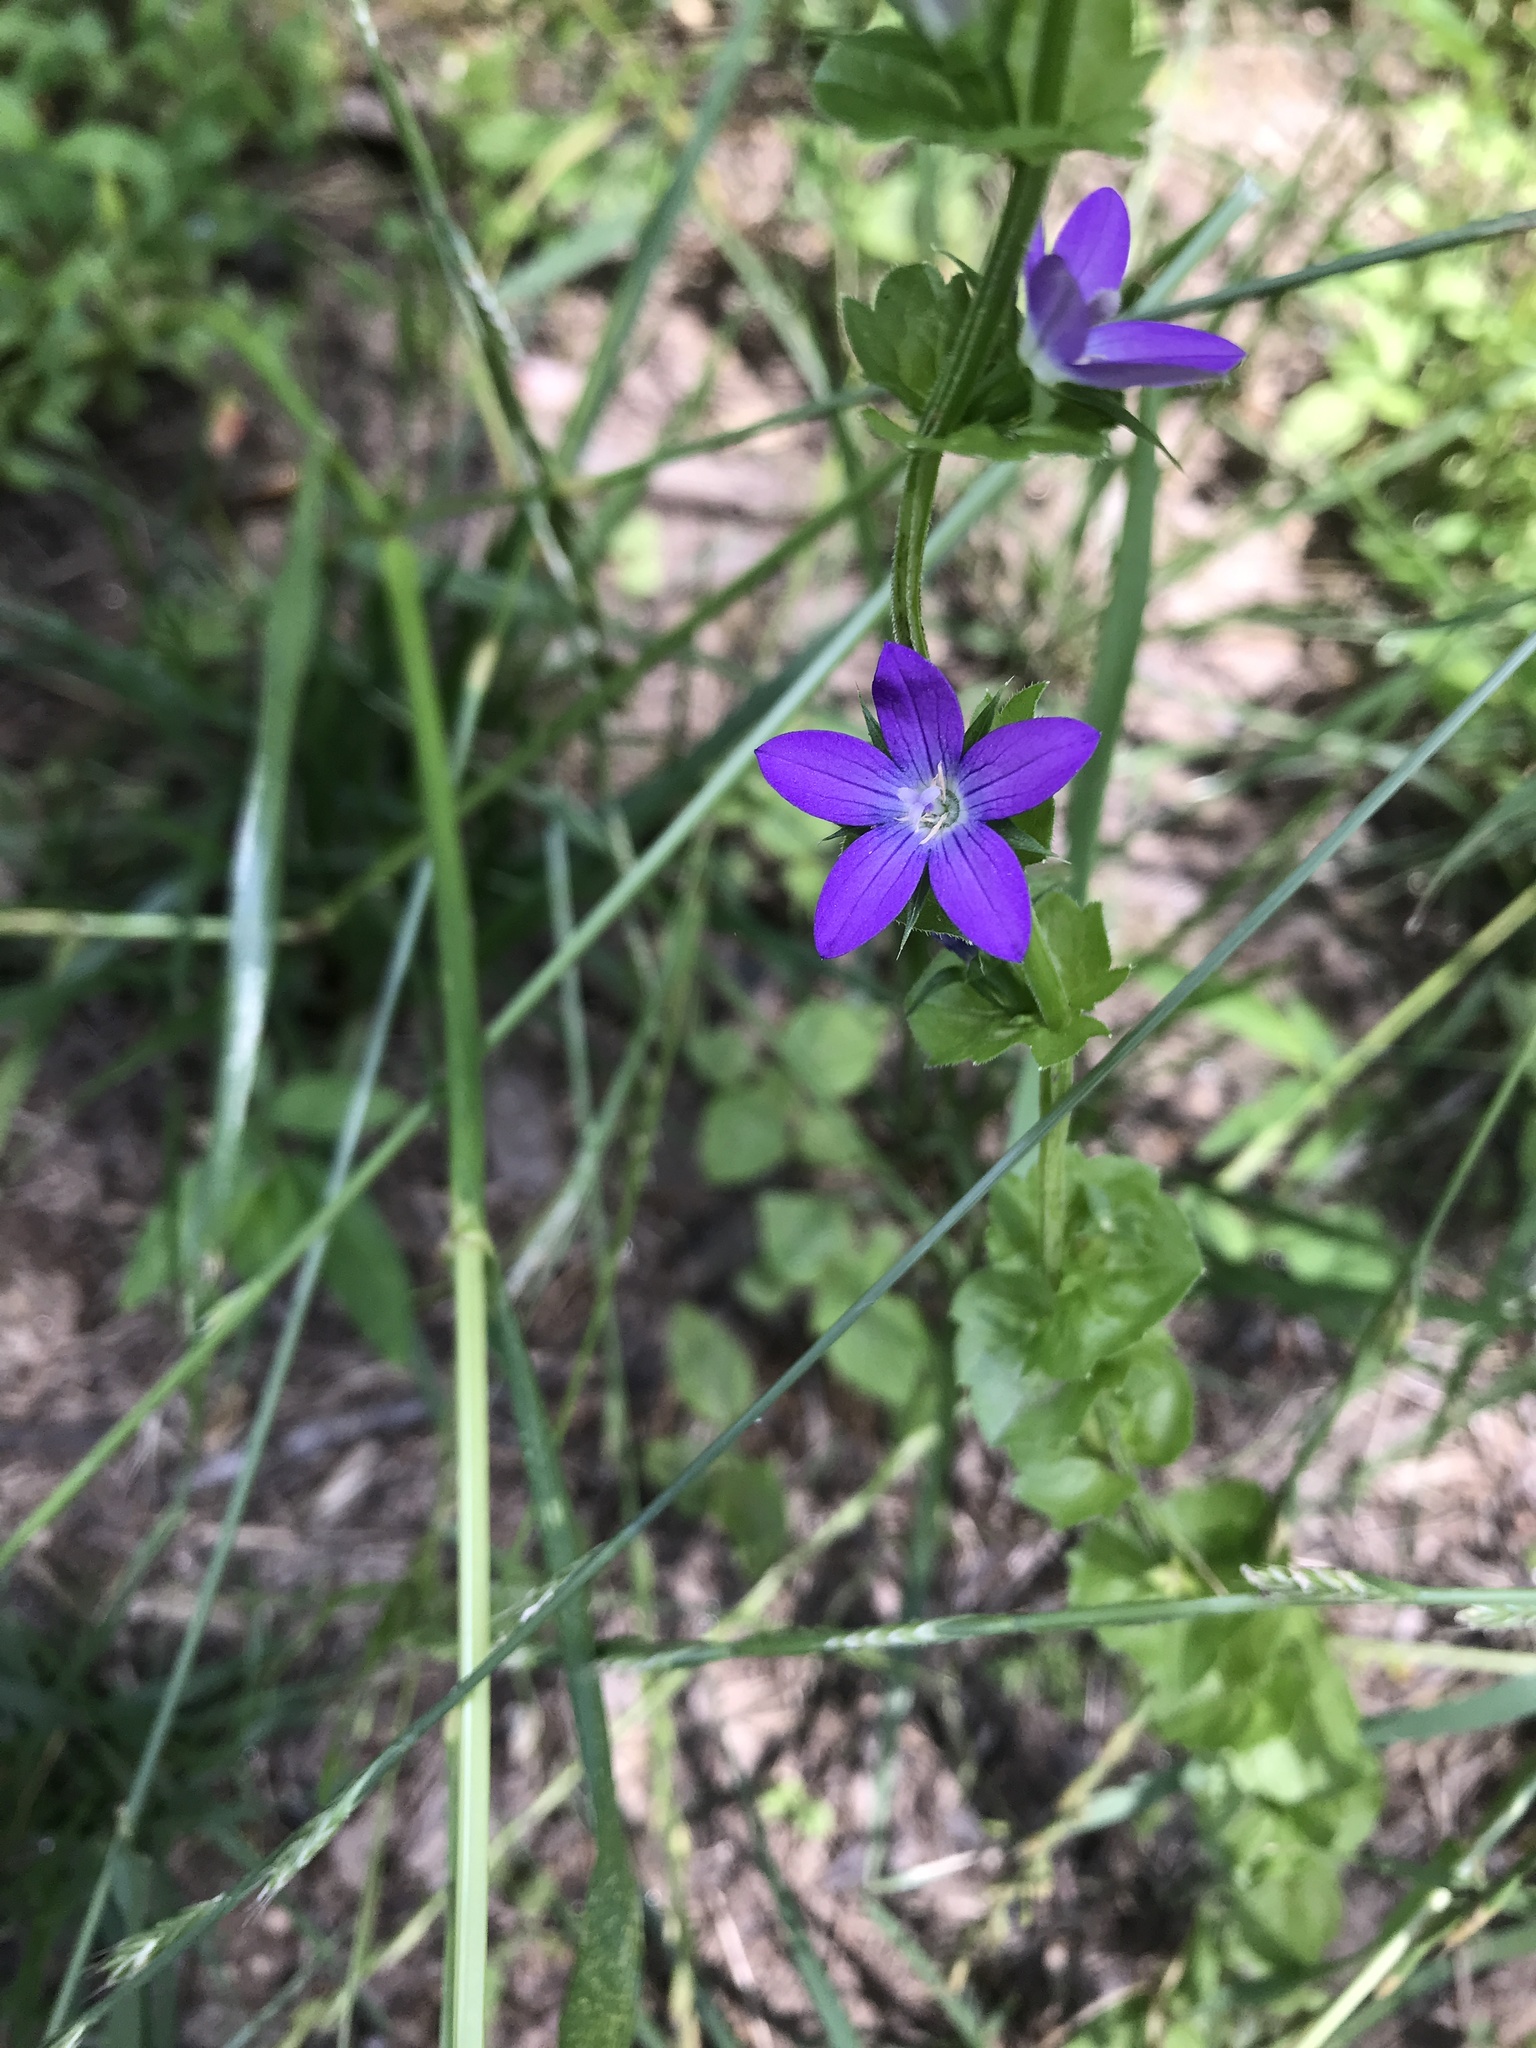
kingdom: Plantae
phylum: Tracheophyta
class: Magnoliopsida
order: Asterales
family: Campanulaceae
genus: Triodanis
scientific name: Triodanis perfoliata
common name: Clasping venus' looking-glass
